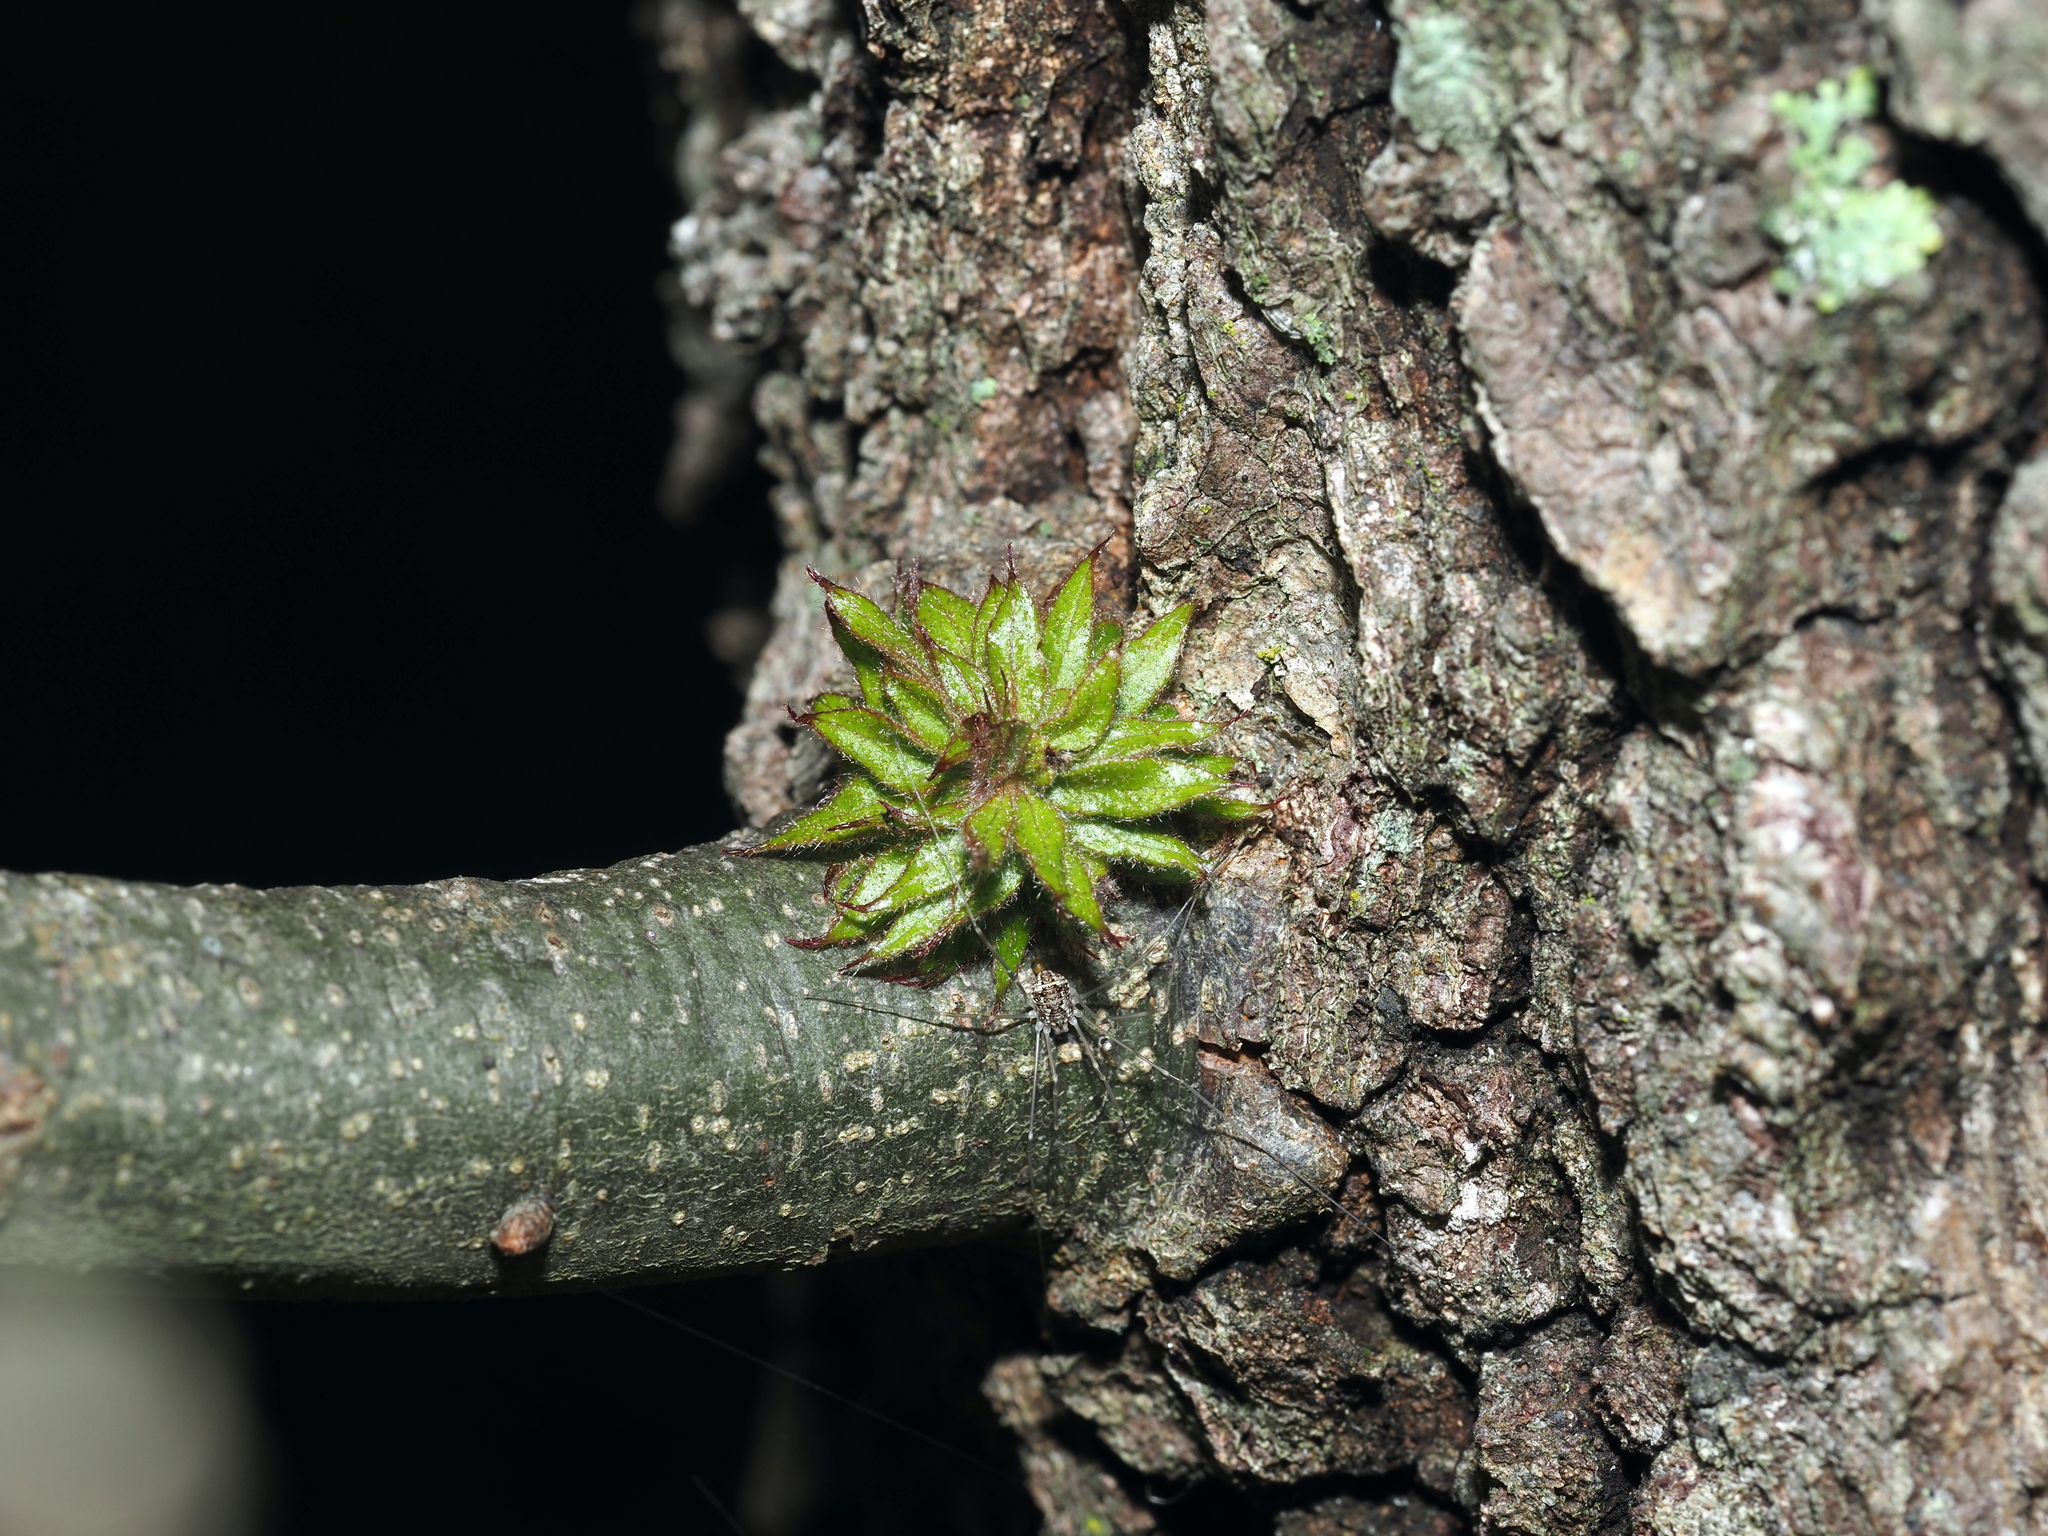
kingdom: Animalia
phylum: Arthropoda
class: Insecta
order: Hymenoptera
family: Cynipidae
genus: Dryocosmus
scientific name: Dryocosmus
